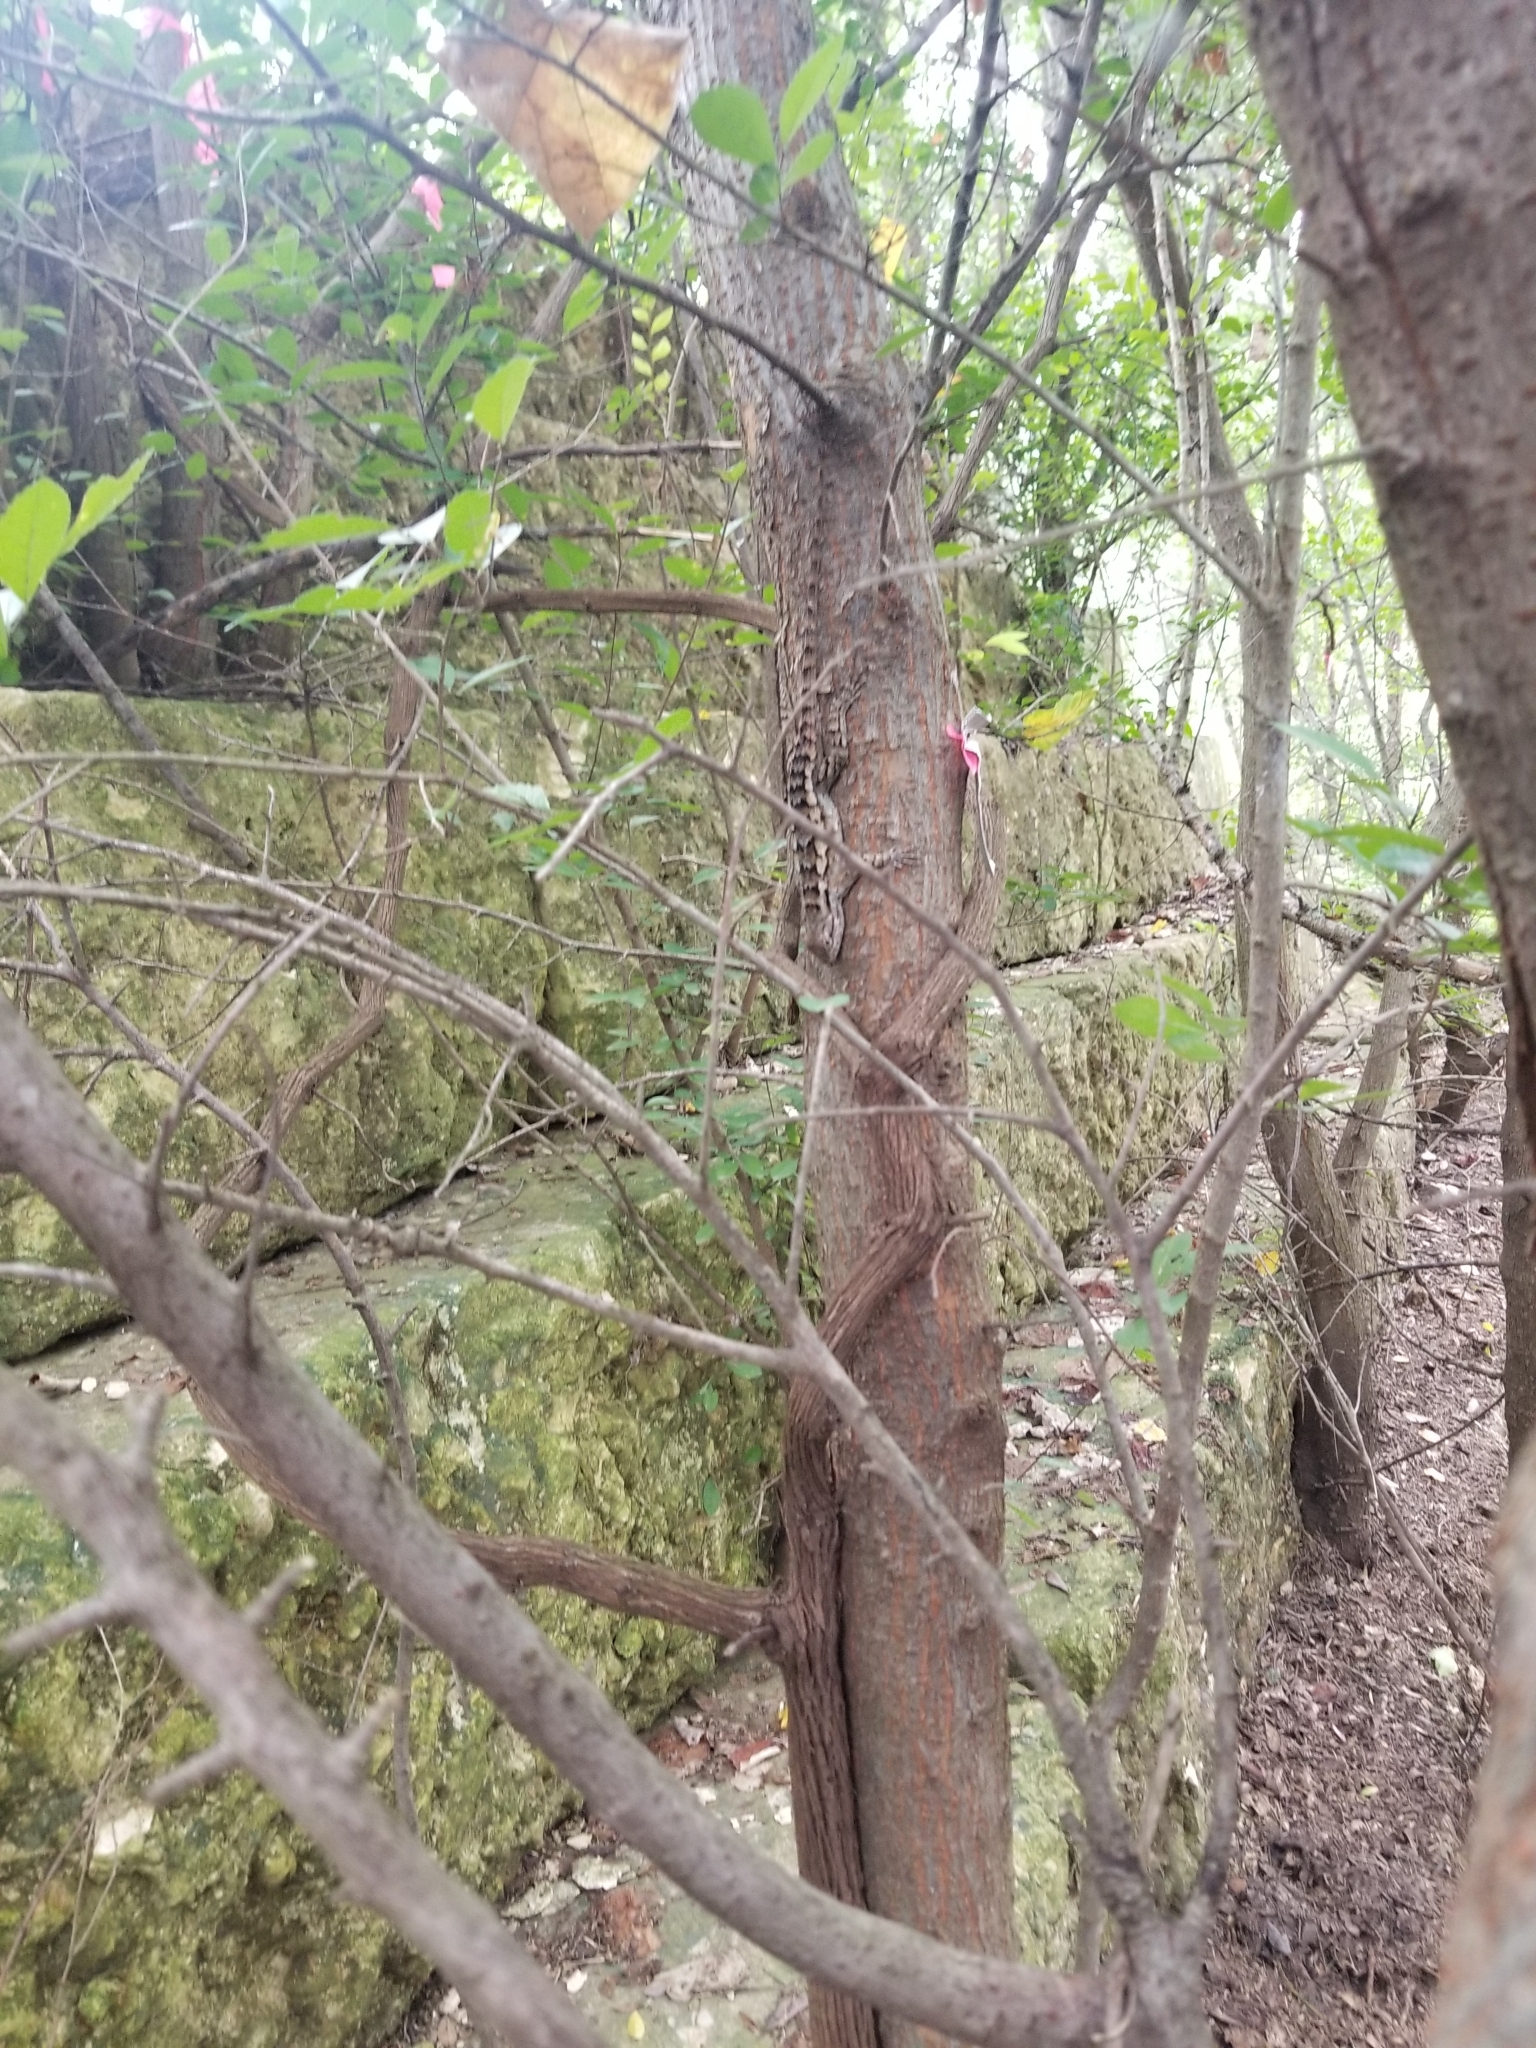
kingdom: Animalia
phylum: Chordata
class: Squamata
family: Phrynosomatidae
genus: Sceloporus
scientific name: Sceloporus olivaceus
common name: Texas spiny lizard
